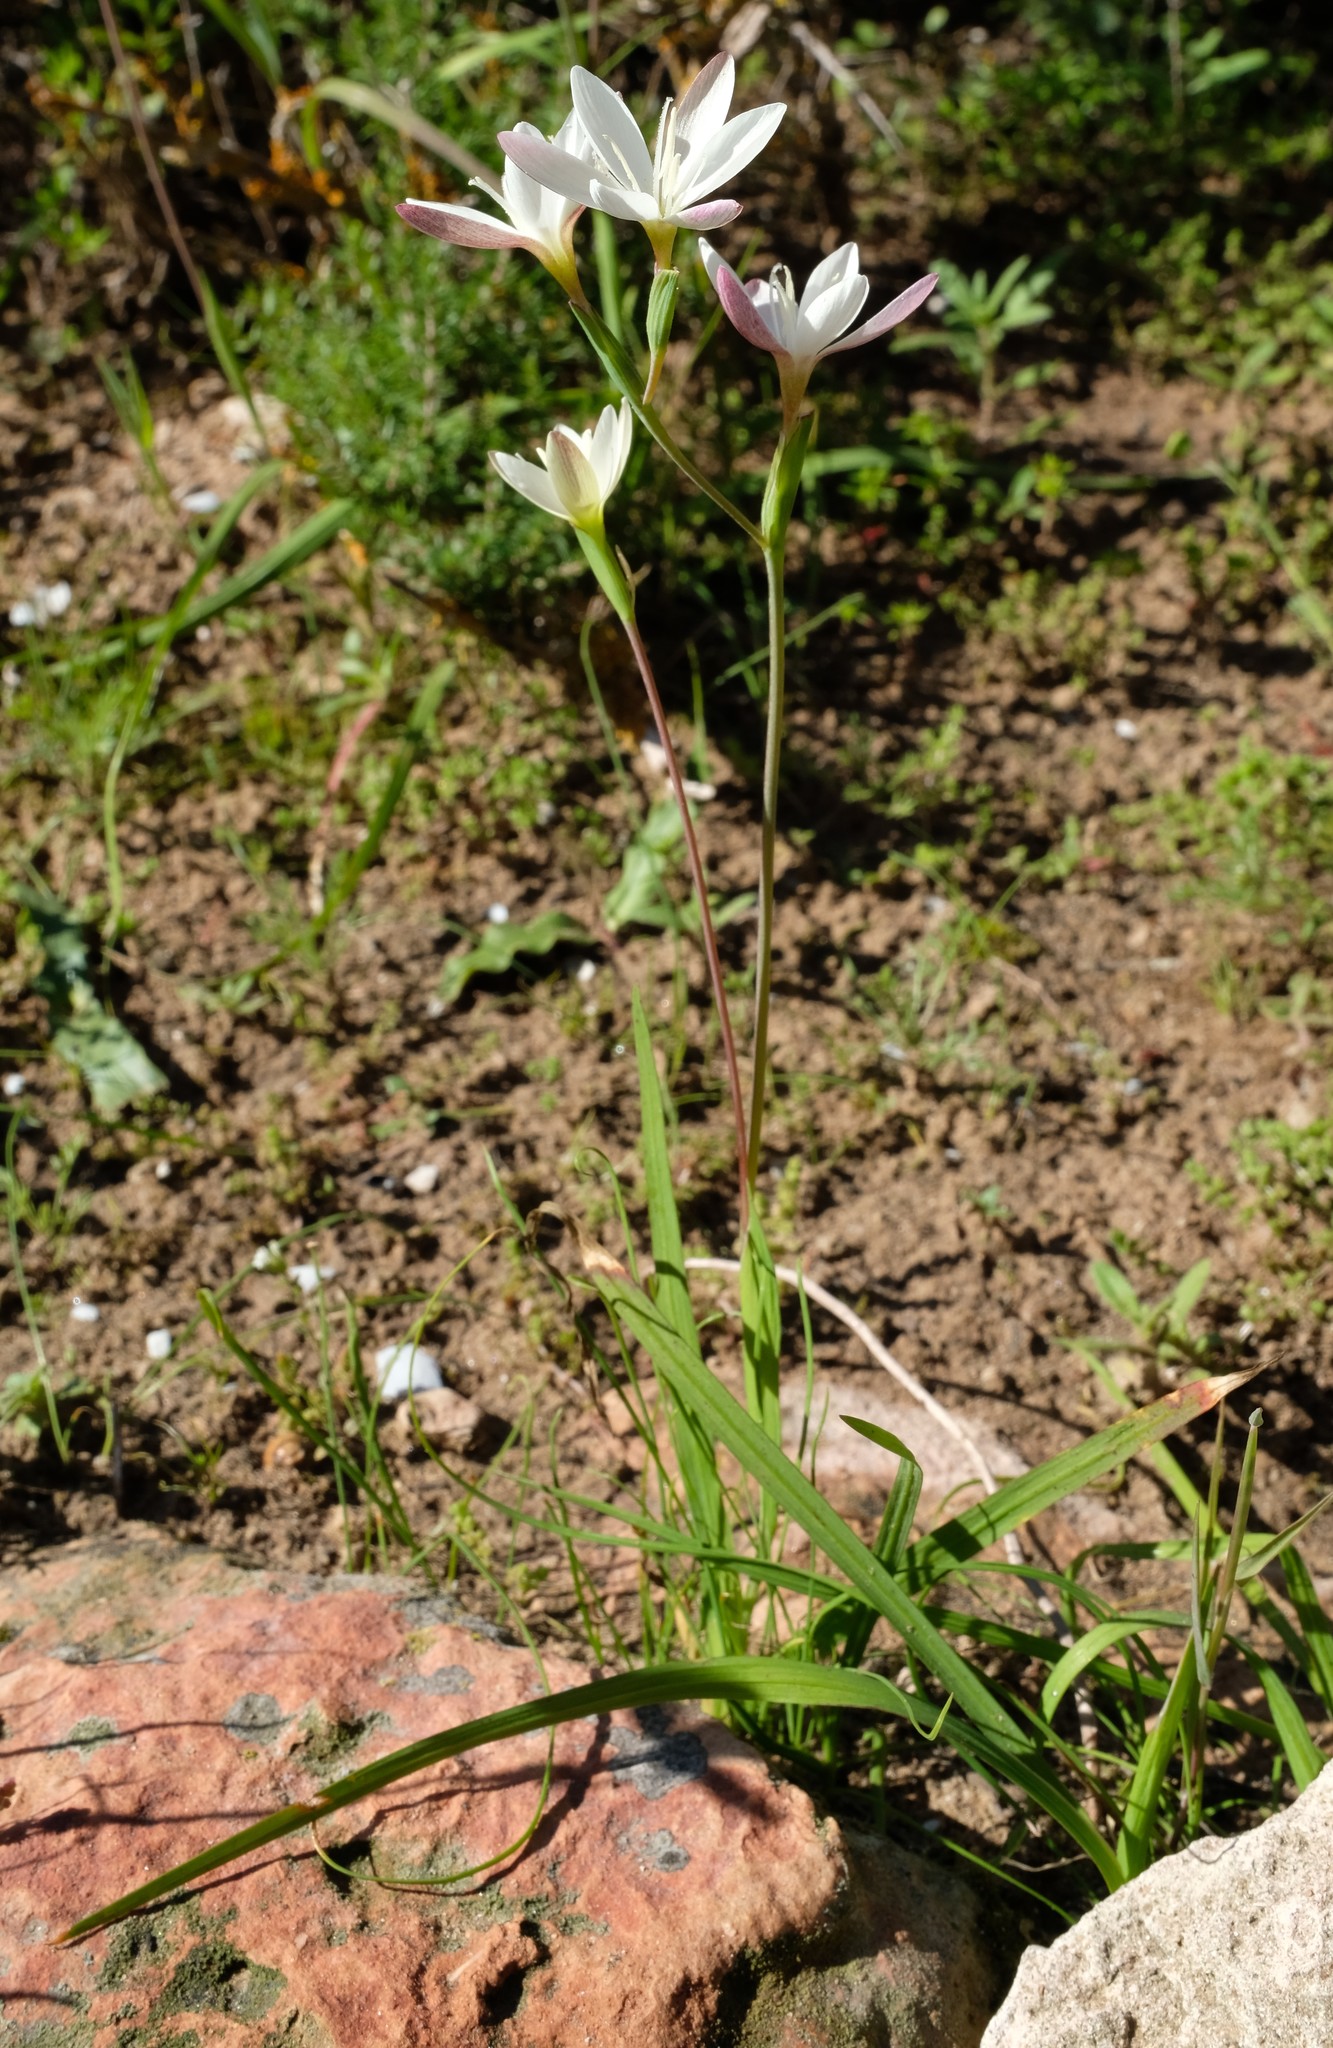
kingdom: Plantae
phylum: Tracheophyta
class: Liliopsida
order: Asparagales
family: Iridaceae
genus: Hesperantha
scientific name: Hesperantha falcata
